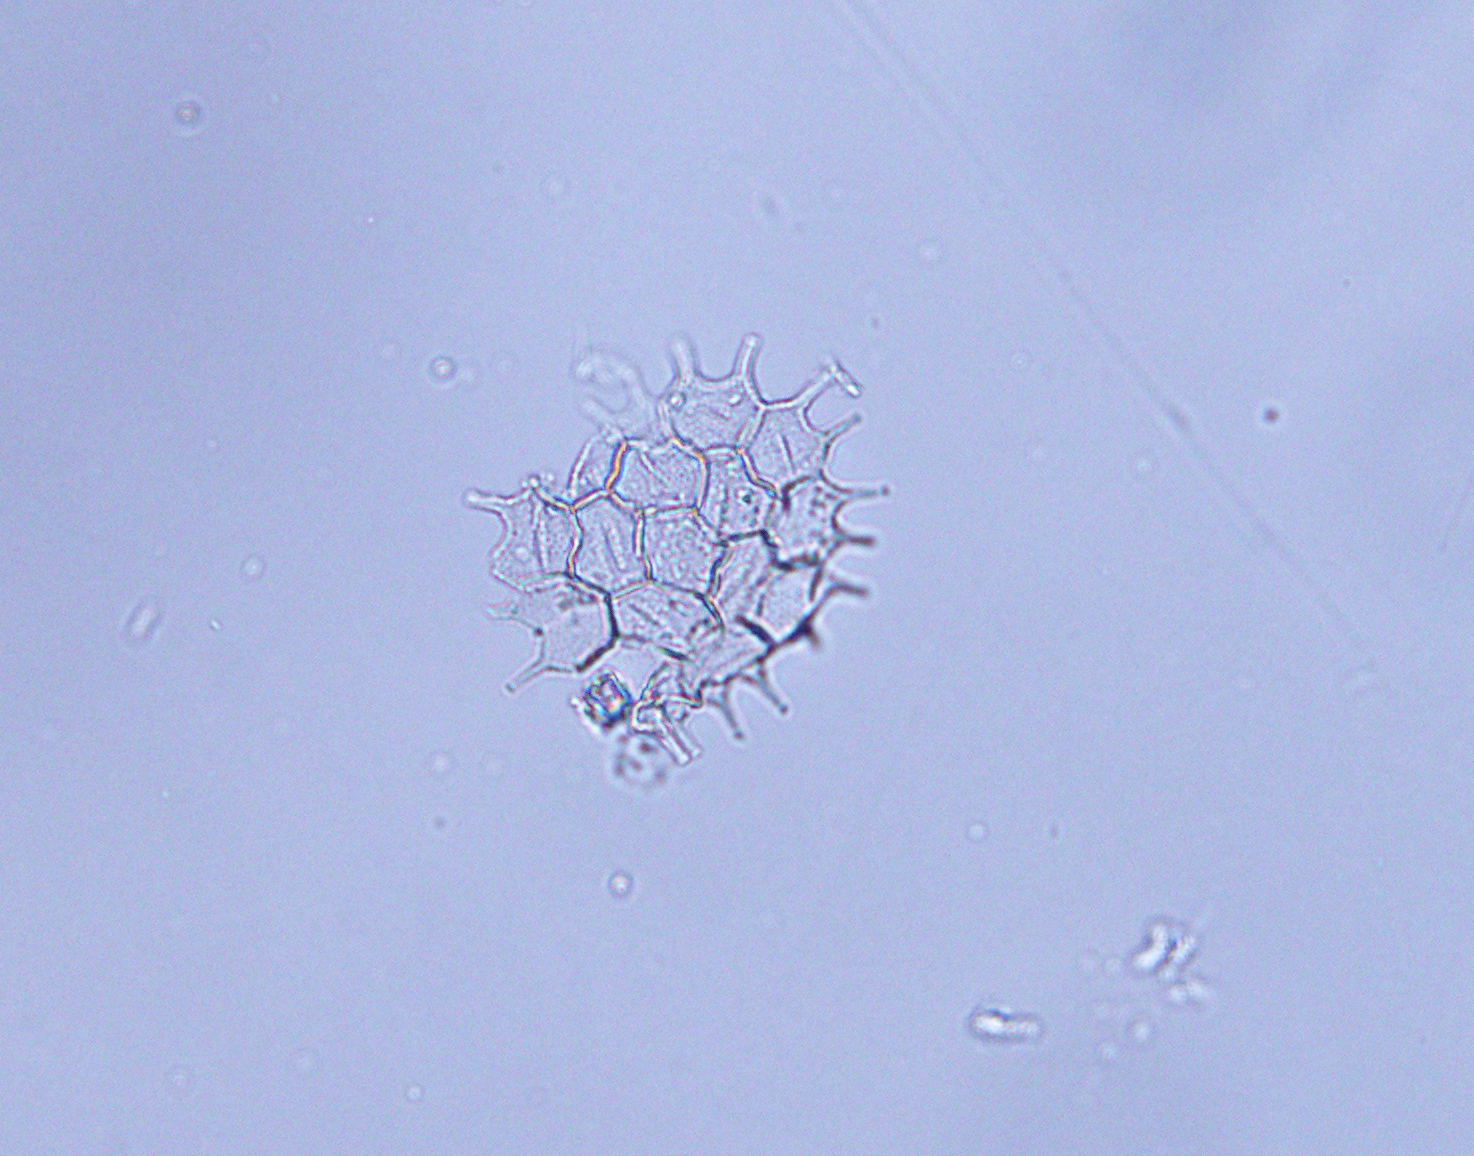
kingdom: Plantae
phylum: Chlorophyta
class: Chlorophyceae
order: Sphaeropleales
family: Hydrodictyaceae
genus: Pseudopediastrum
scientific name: Pseudopediastrum boryanum
